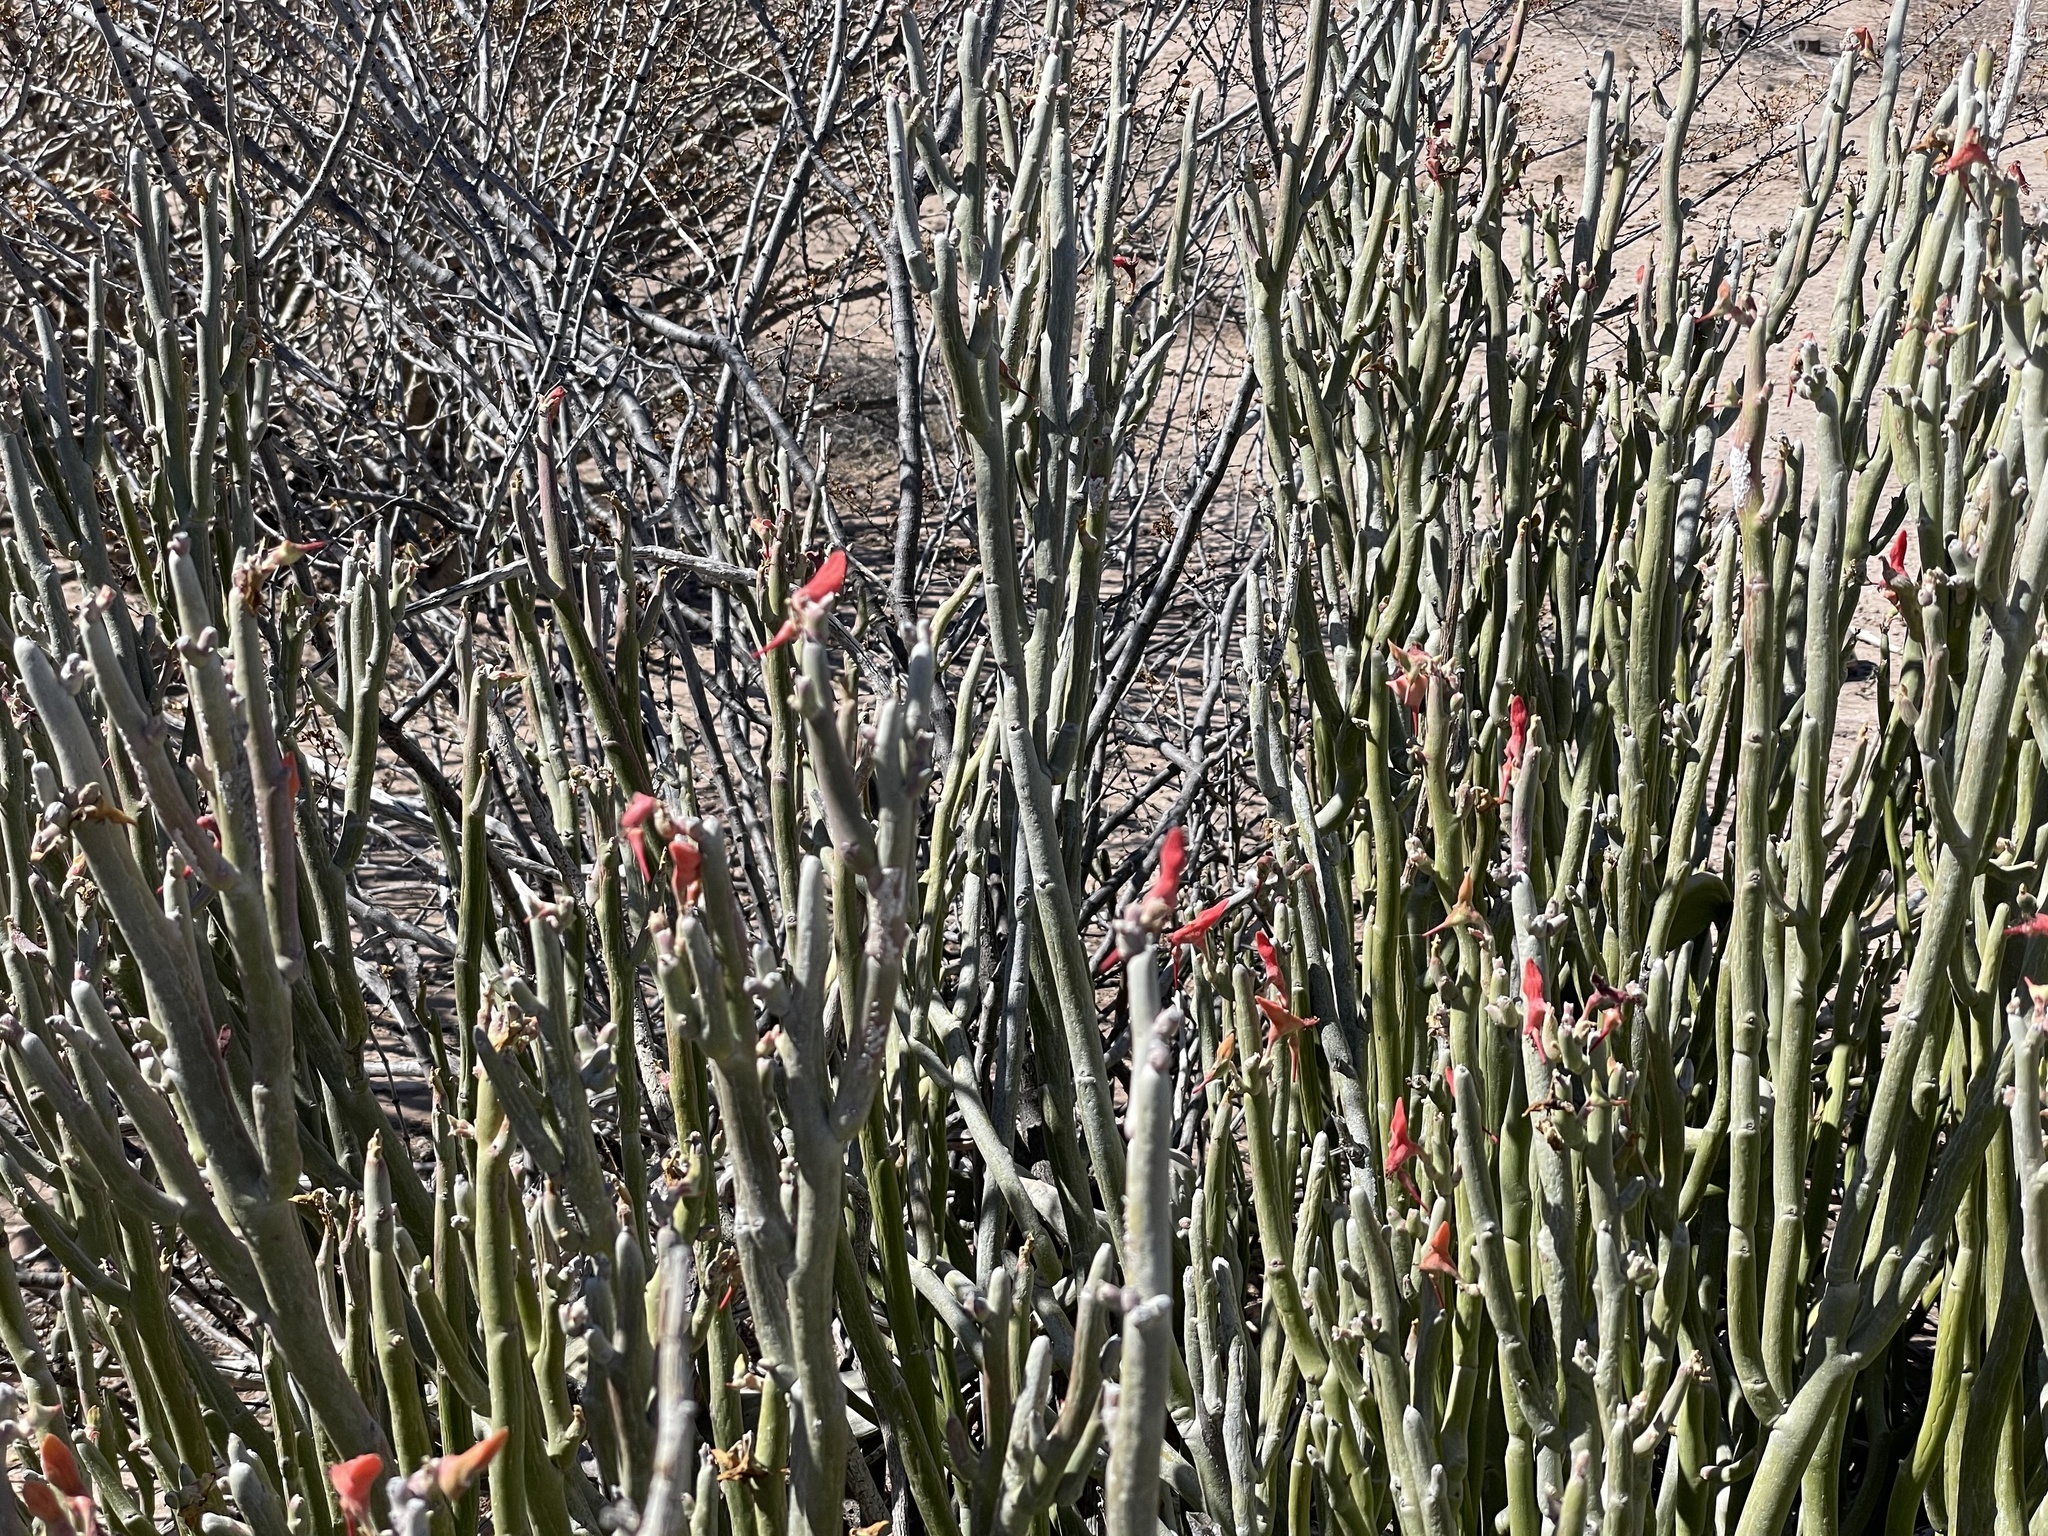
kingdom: Plantae
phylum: Tracheophyta
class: Magnoliopsida
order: Malpighiales
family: Euphorbiaceae
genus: Euphorbia
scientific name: Euphorbia lomelii
